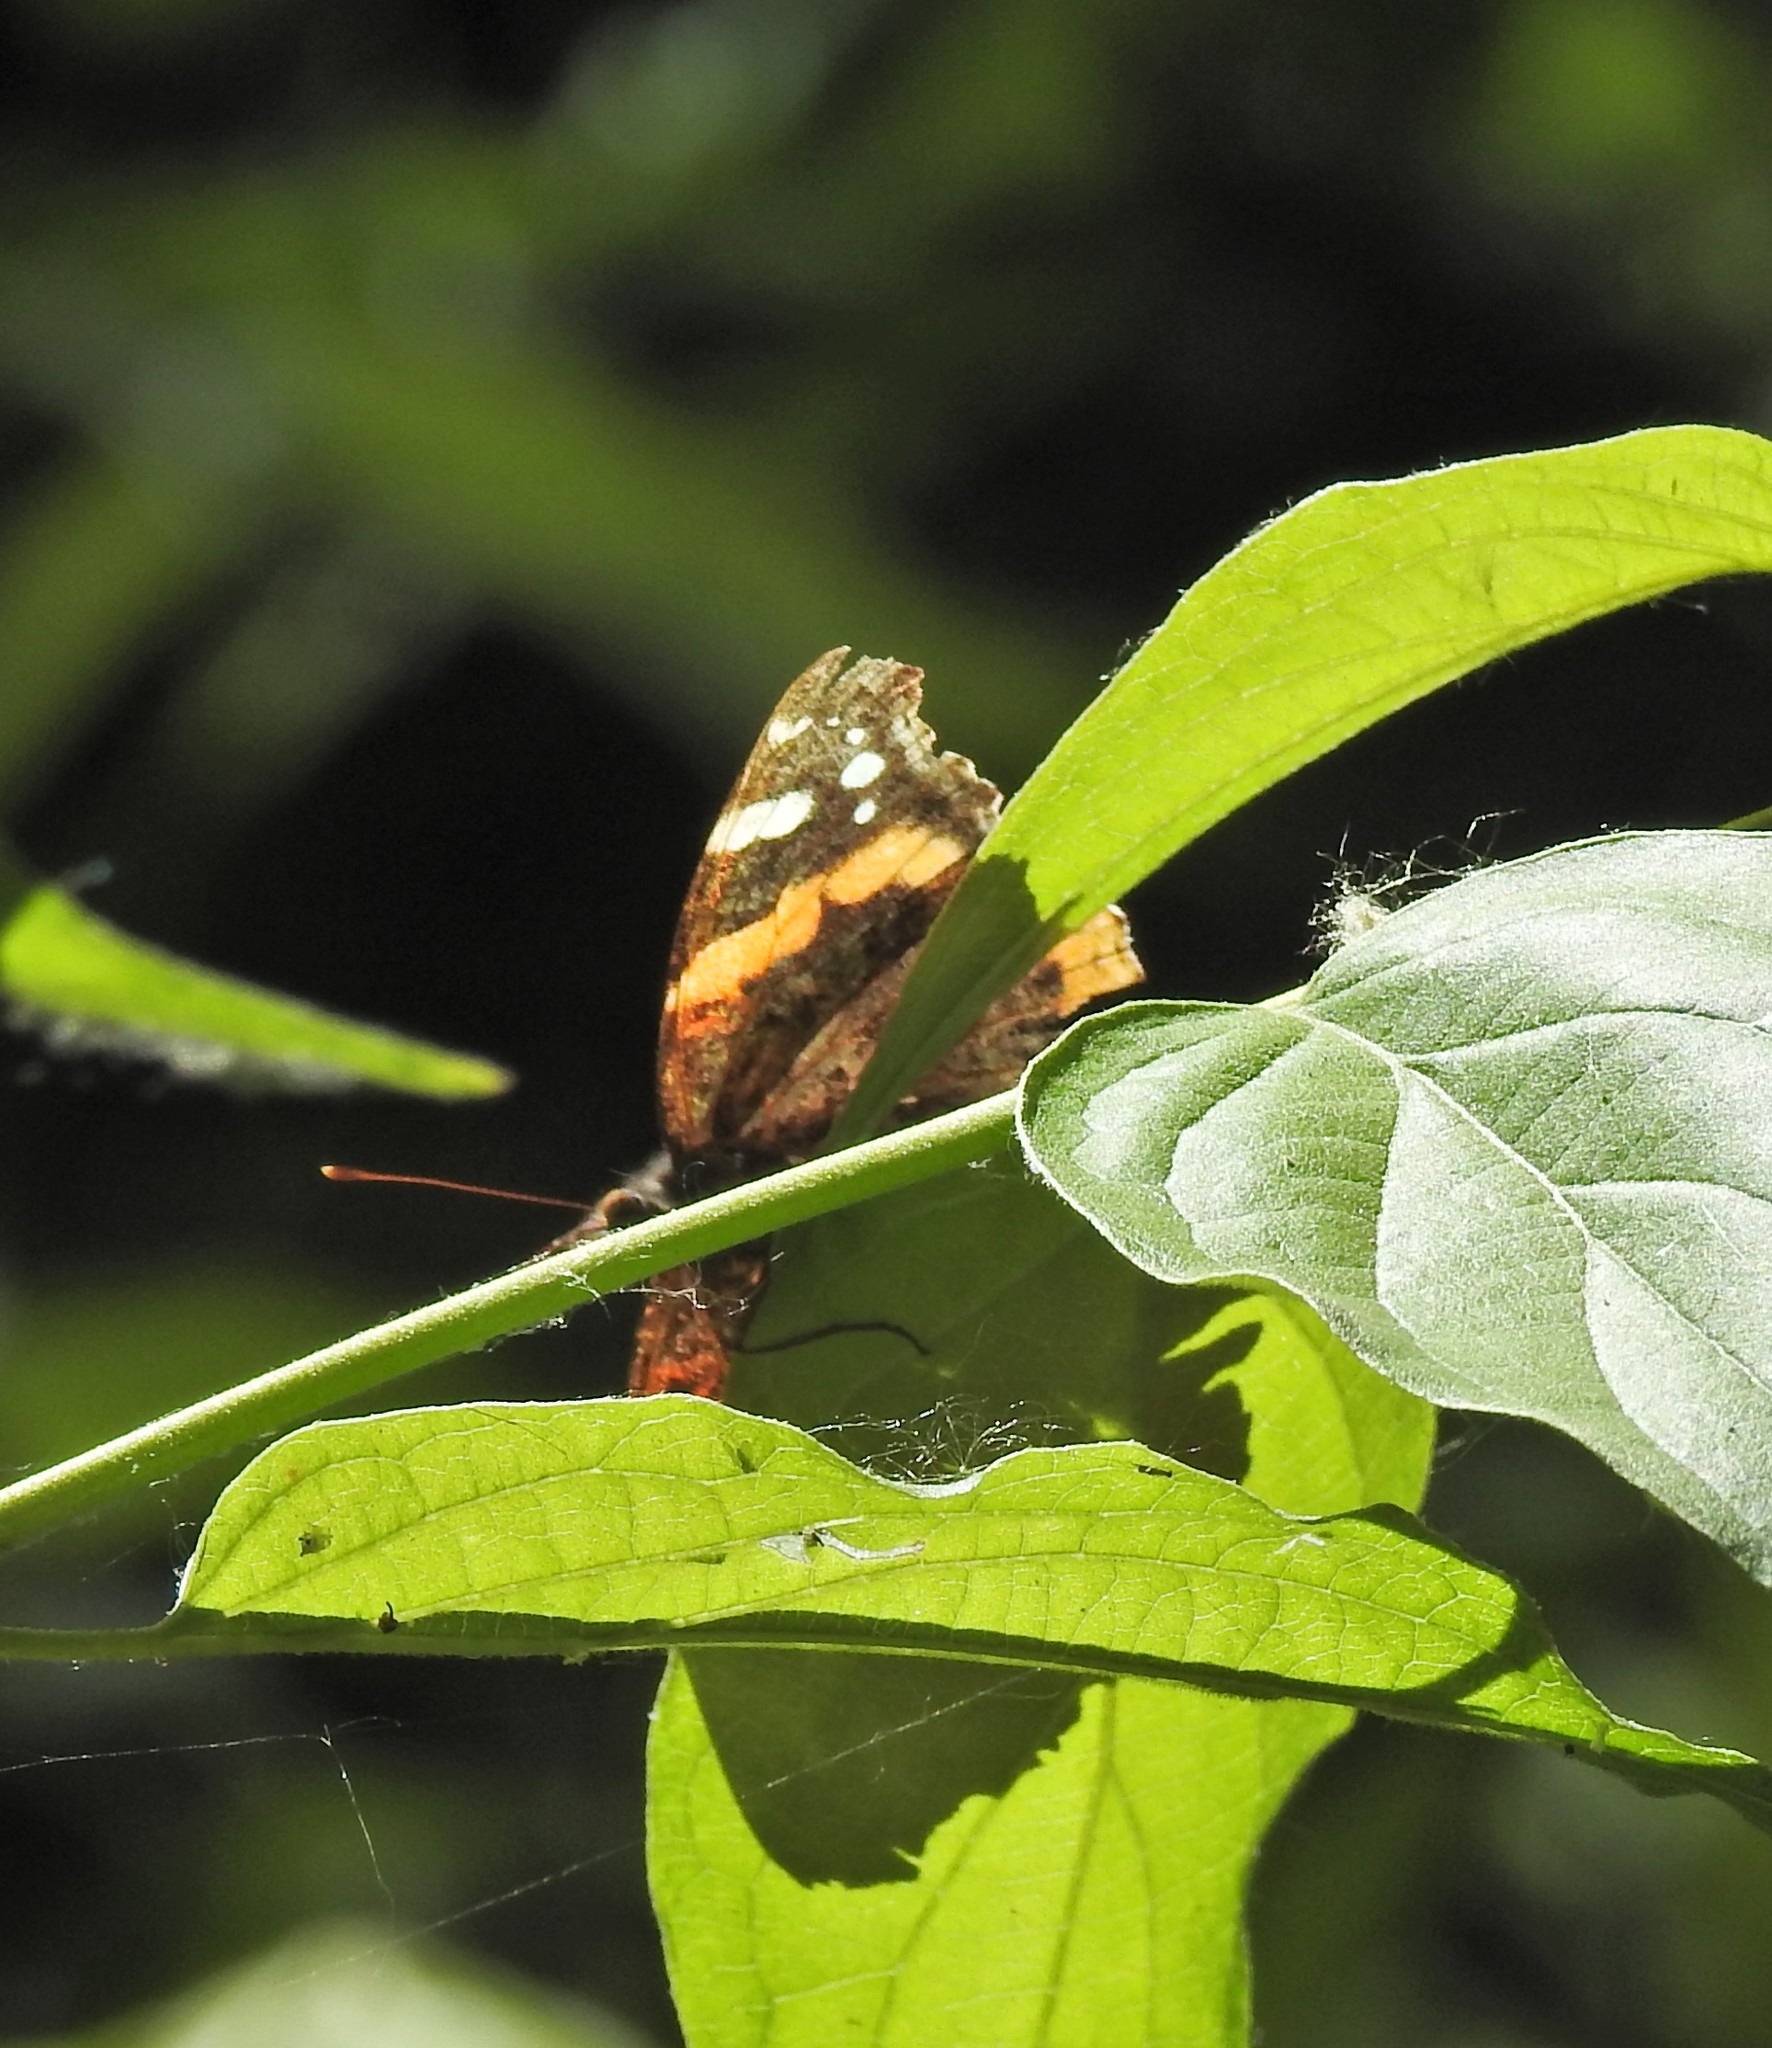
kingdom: Animalia
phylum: Arthropoda
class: Insecta
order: Lepidoptera
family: Nymphalidae
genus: Vanessa
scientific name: Vanessa atalanta
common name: Red admiral
